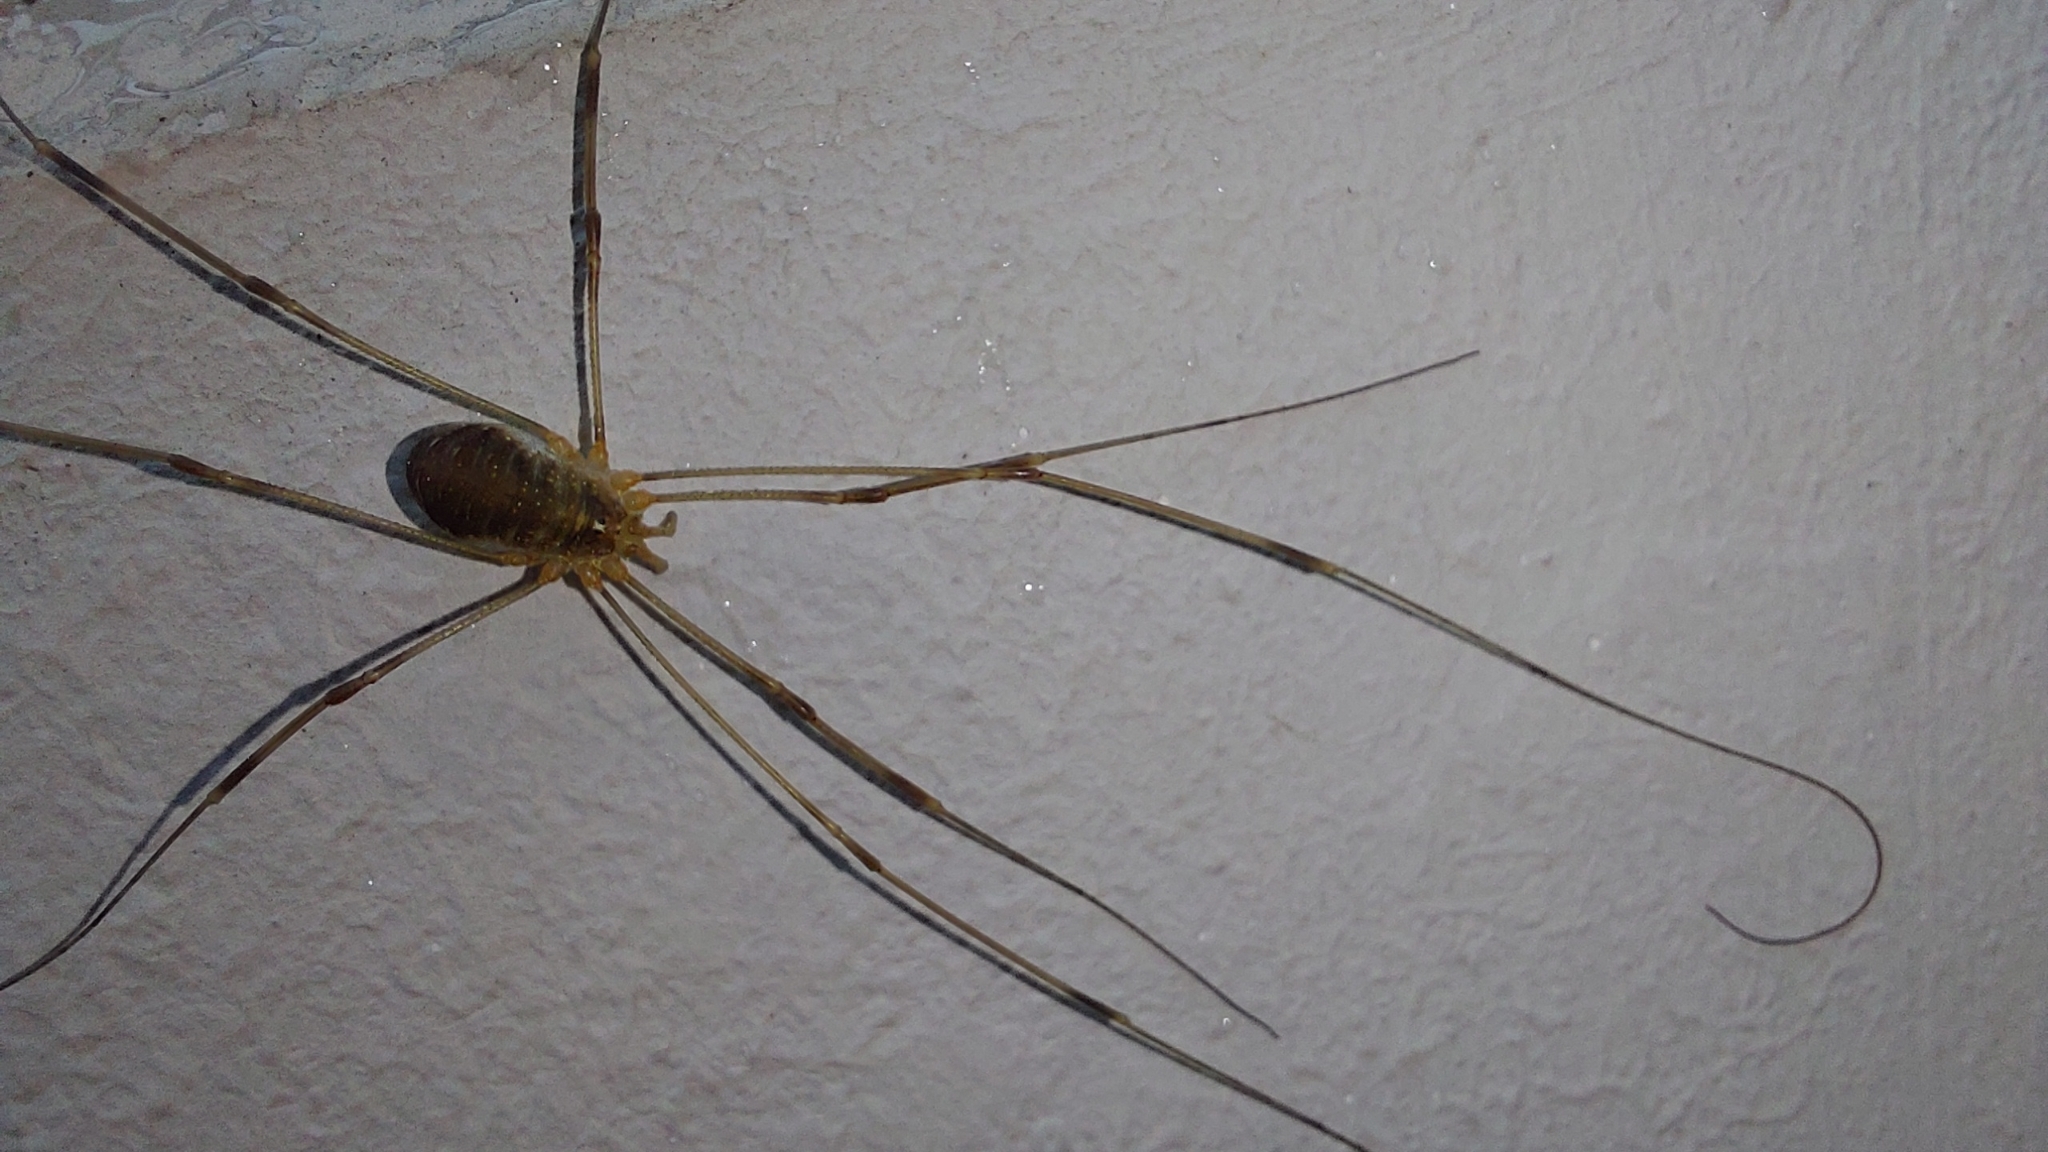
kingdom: Animalia
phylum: Arthropoda
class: Arachnida
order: Opiliones
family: Phalangiidae
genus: Opilio
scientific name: Opilio canestrinii
